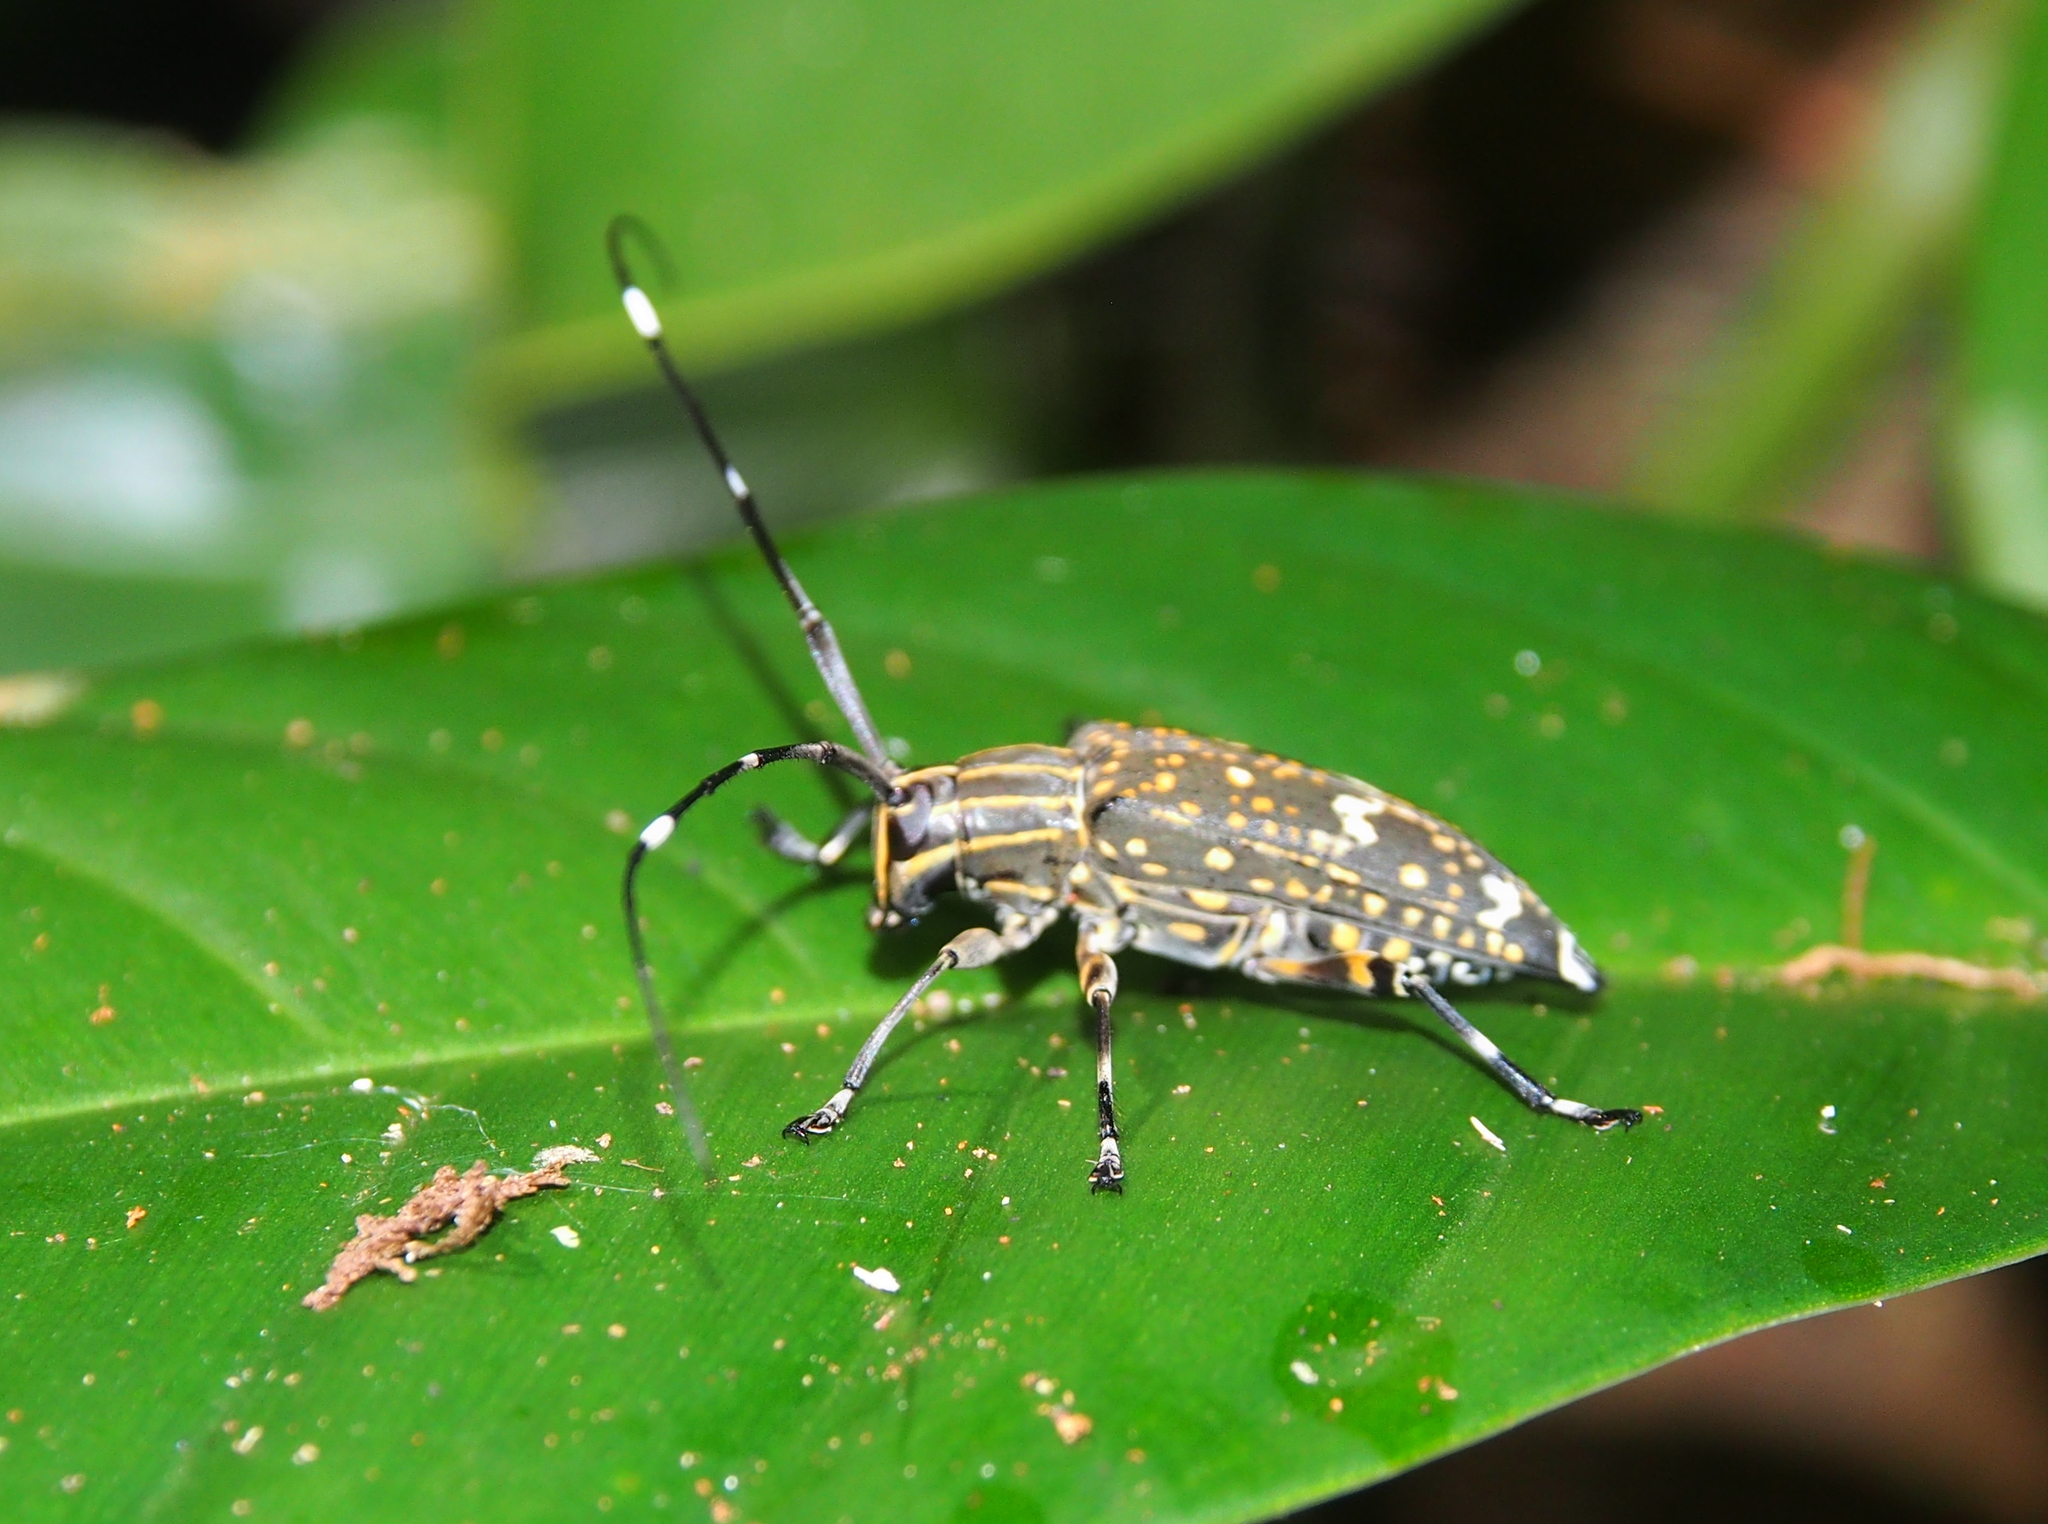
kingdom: Animalia
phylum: Arthropoda
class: Insecta
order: Coleoptera
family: Cerambycidae
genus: Colobothea
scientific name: Colobothea bitincta
